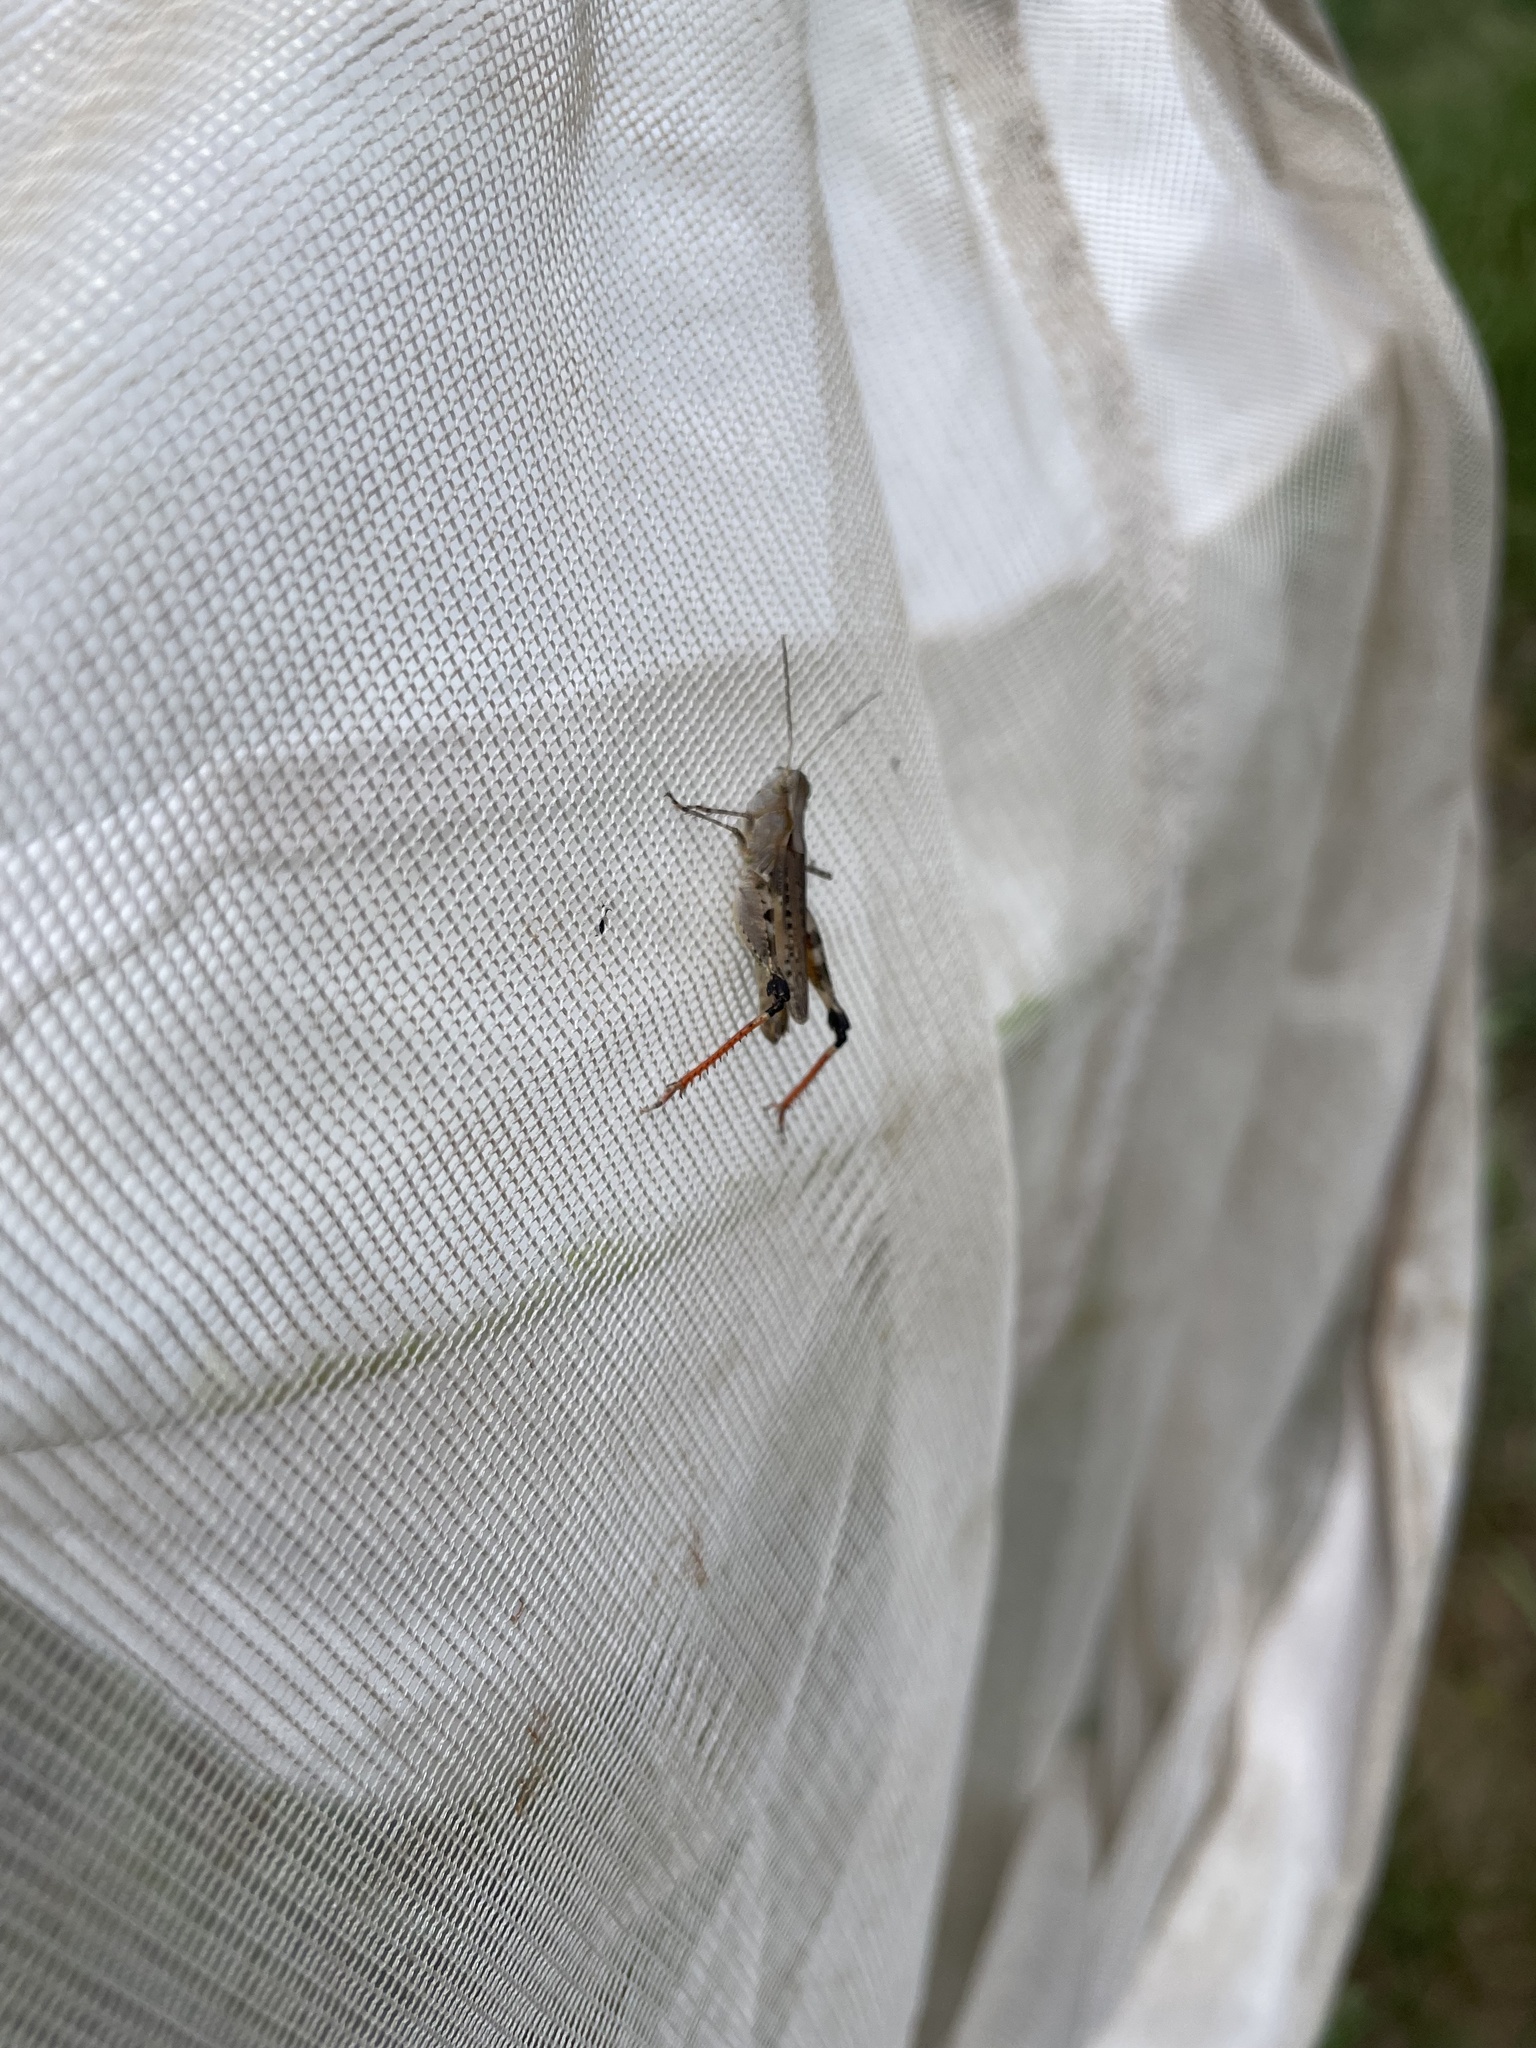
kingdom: Animalia
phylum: Arthropoda
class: Insecta
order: Orthoptera
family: Acrididae
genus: Ageneotettix
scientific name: Ageneotettix deorum
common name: White-whiskered grasshopper
